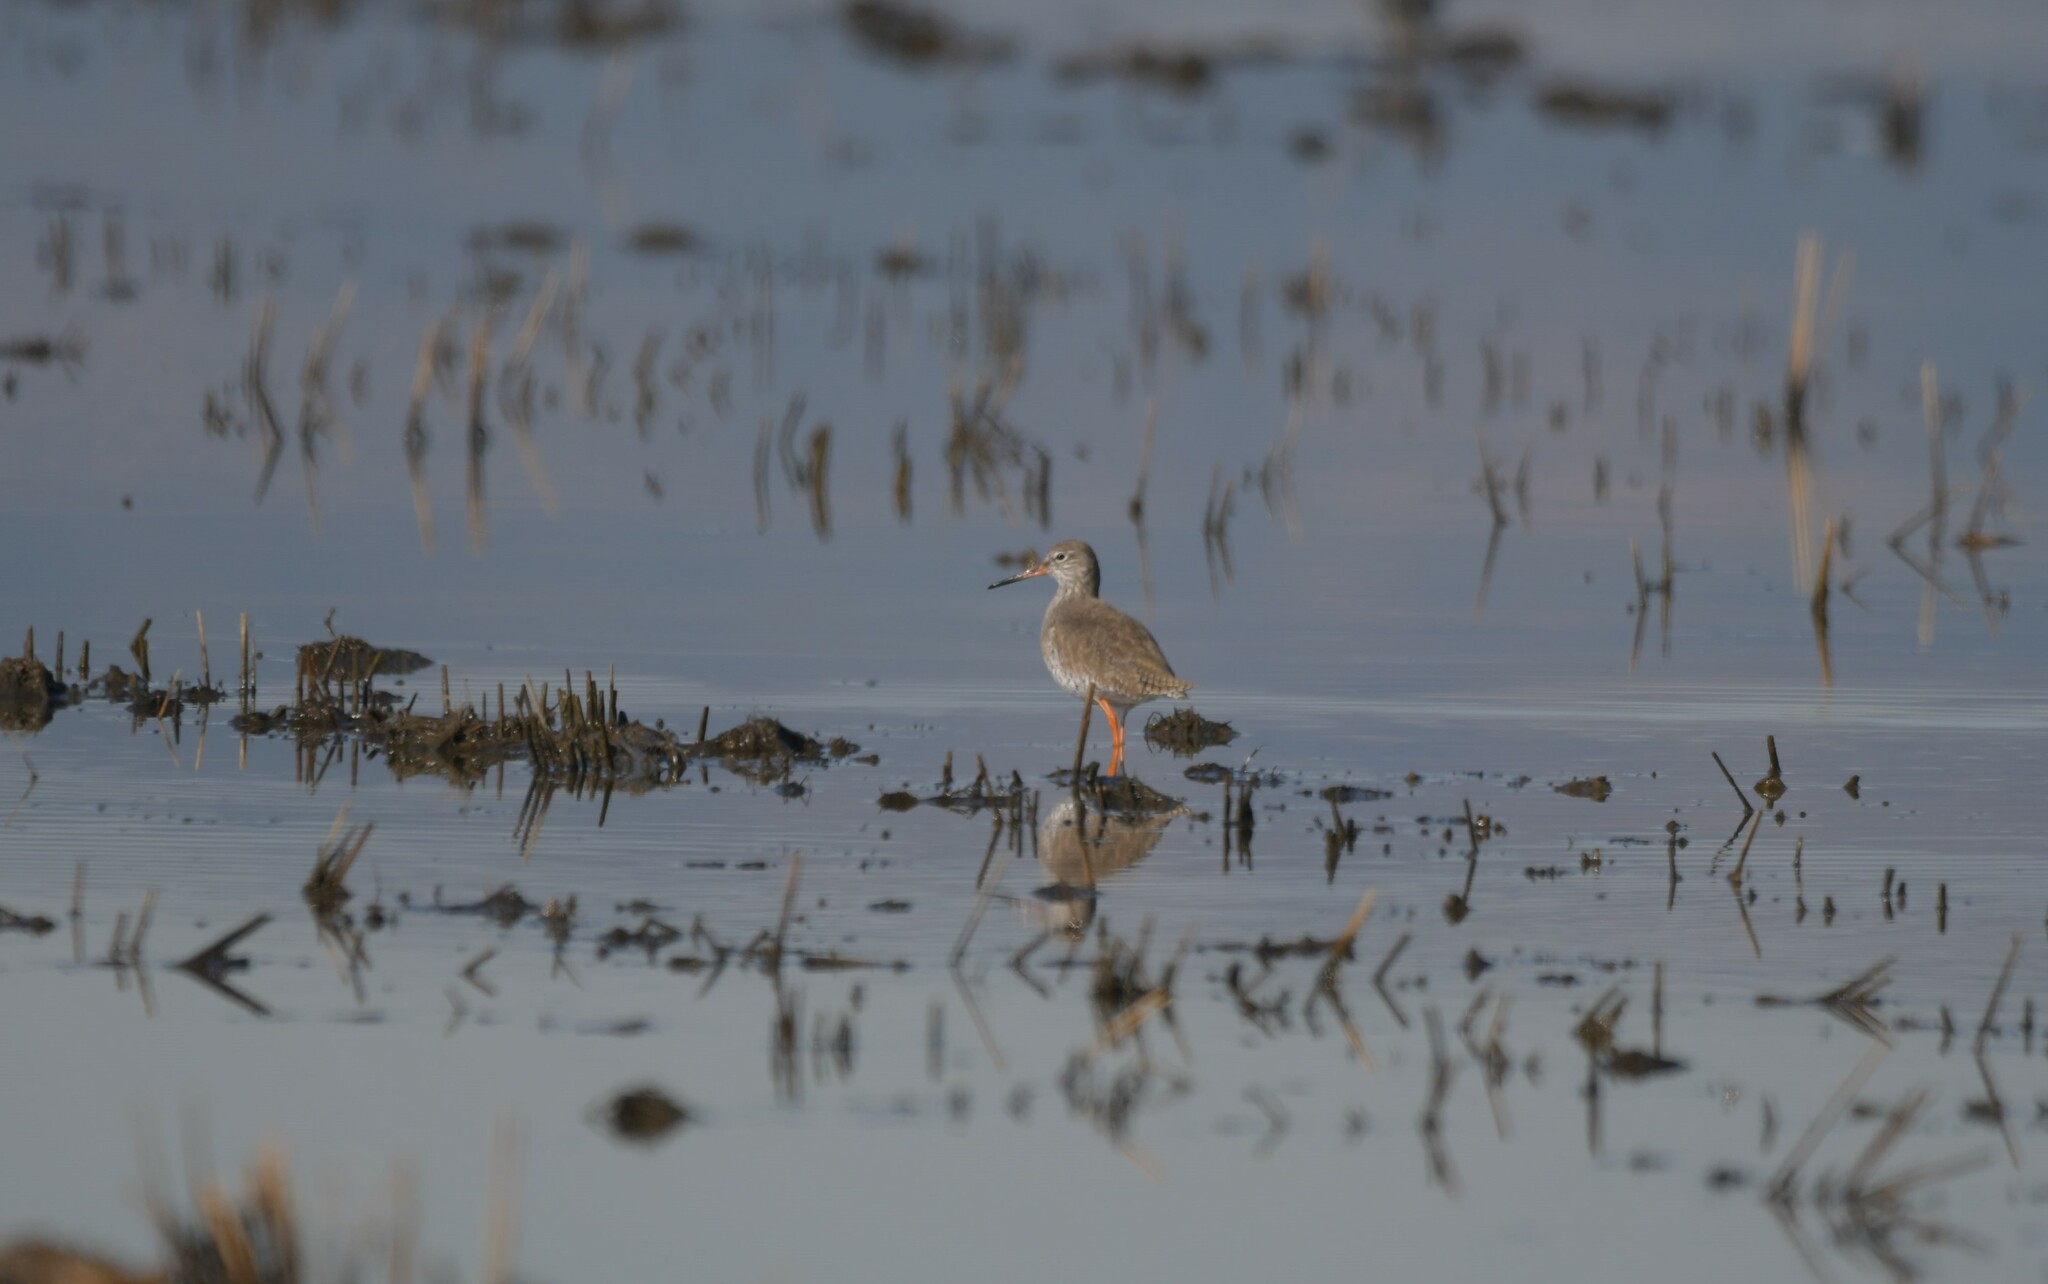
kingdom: Animalia
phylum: Chordata
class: Aves
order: Charadriiformes
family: Scolopacidae
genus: Tringa
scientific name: Tringa totanus
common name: Common redshank
